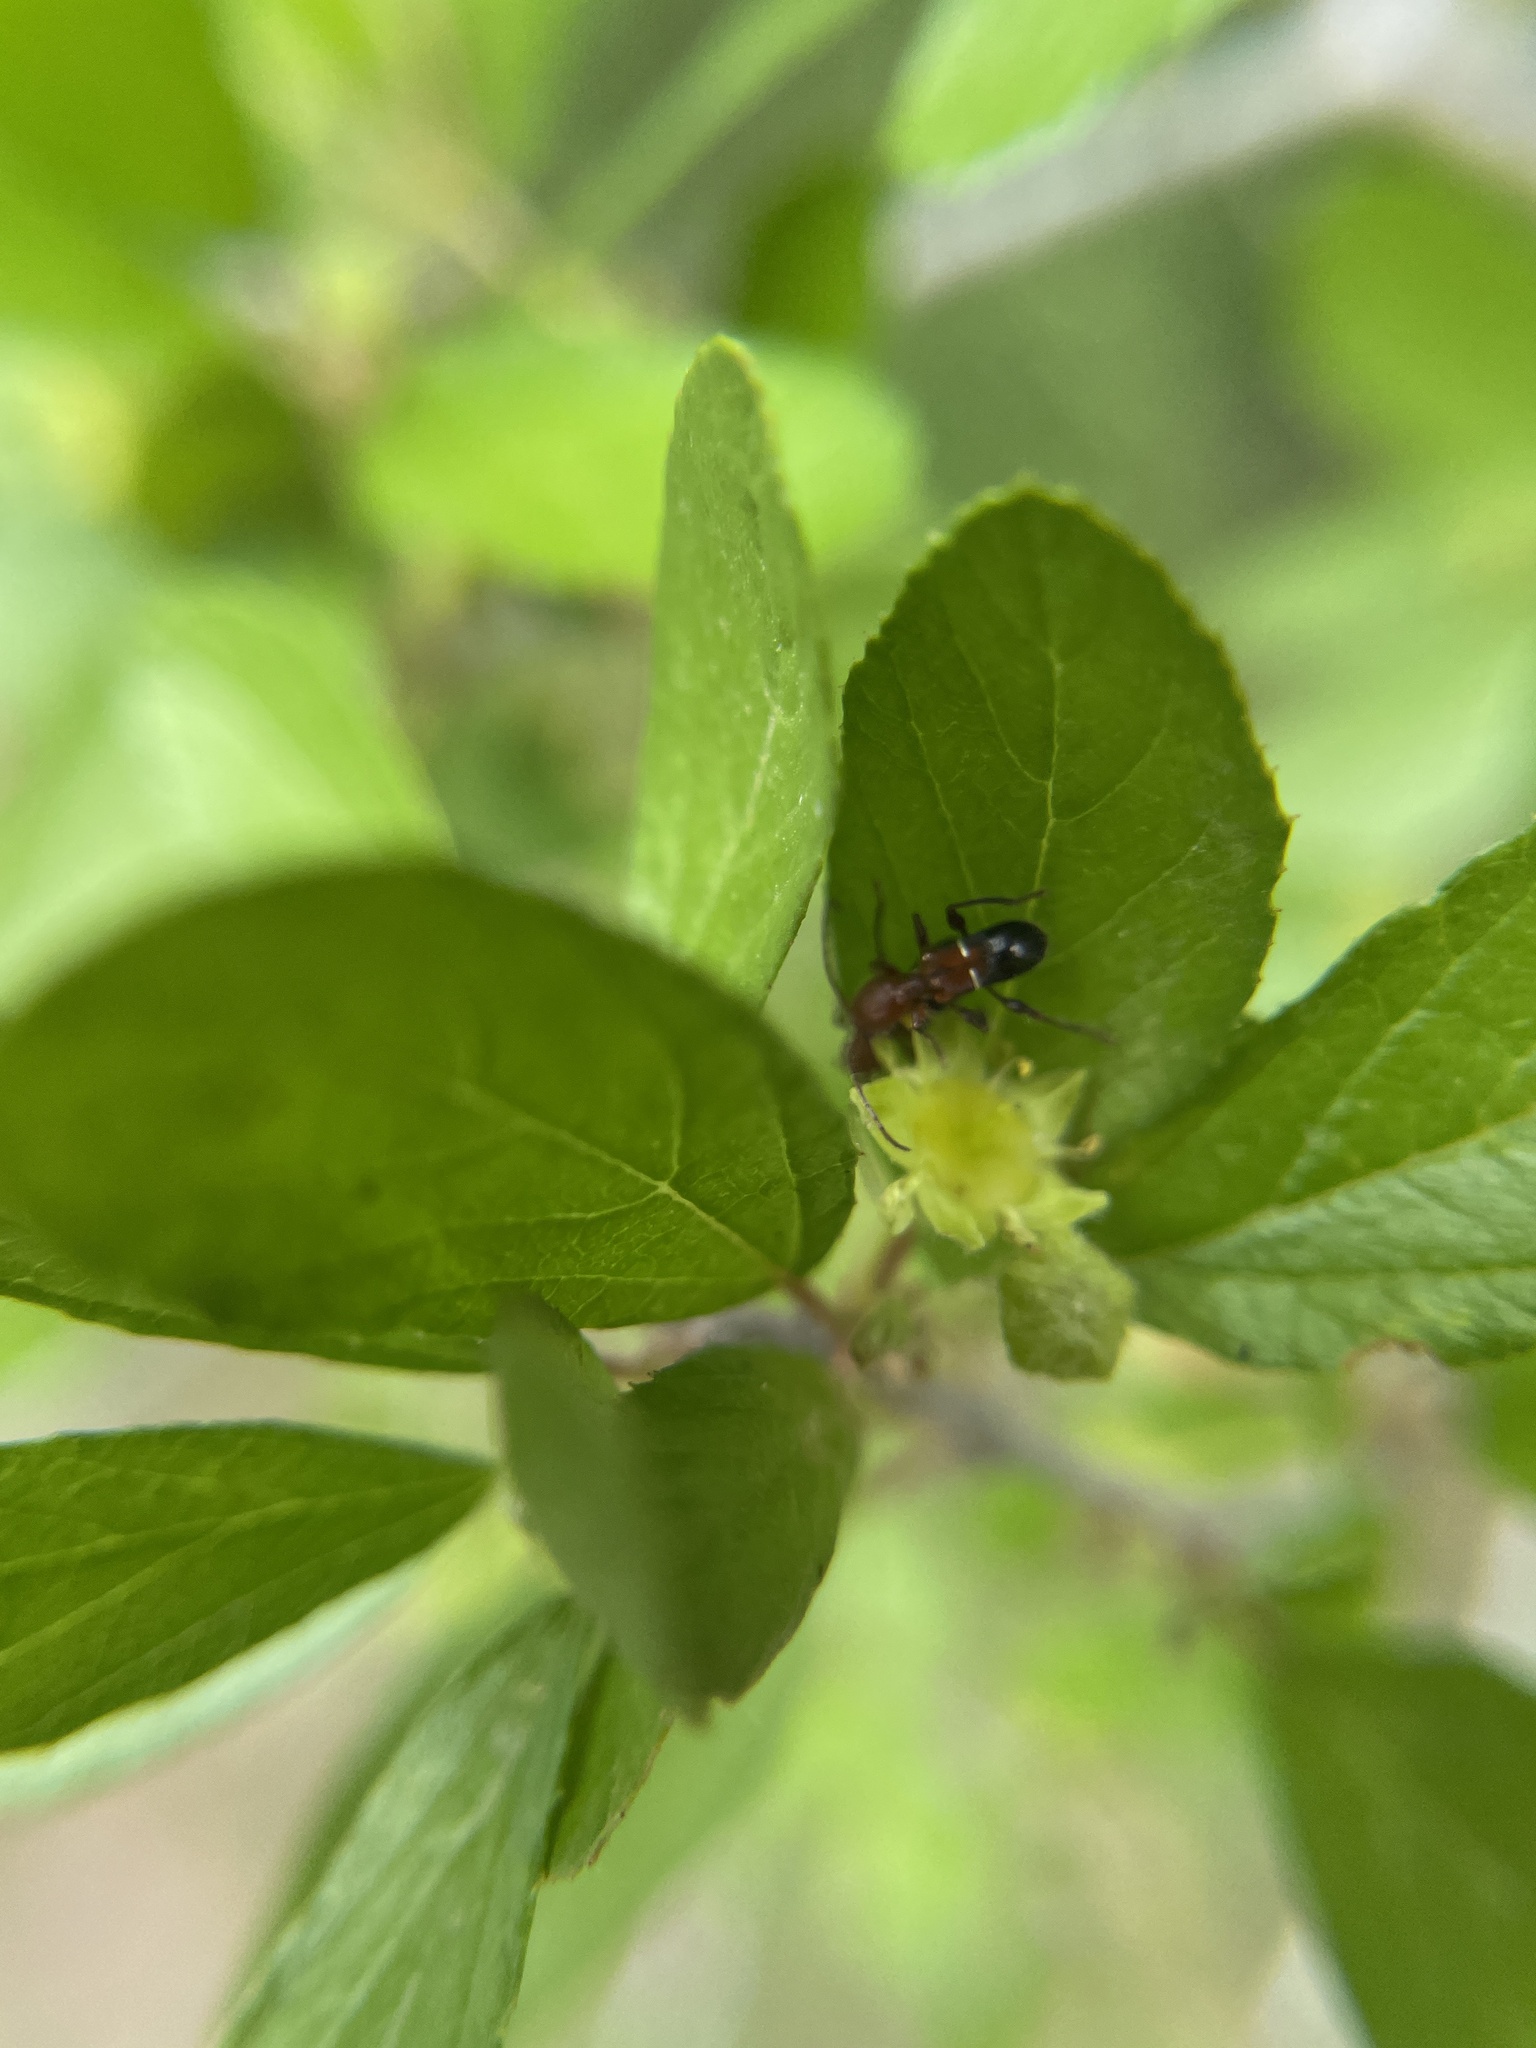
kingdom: Animalia
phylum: Arthropoda
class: Insecta
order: Coleoptera
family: Cerambycidae
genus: Euderces
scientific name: Euderces reichei
